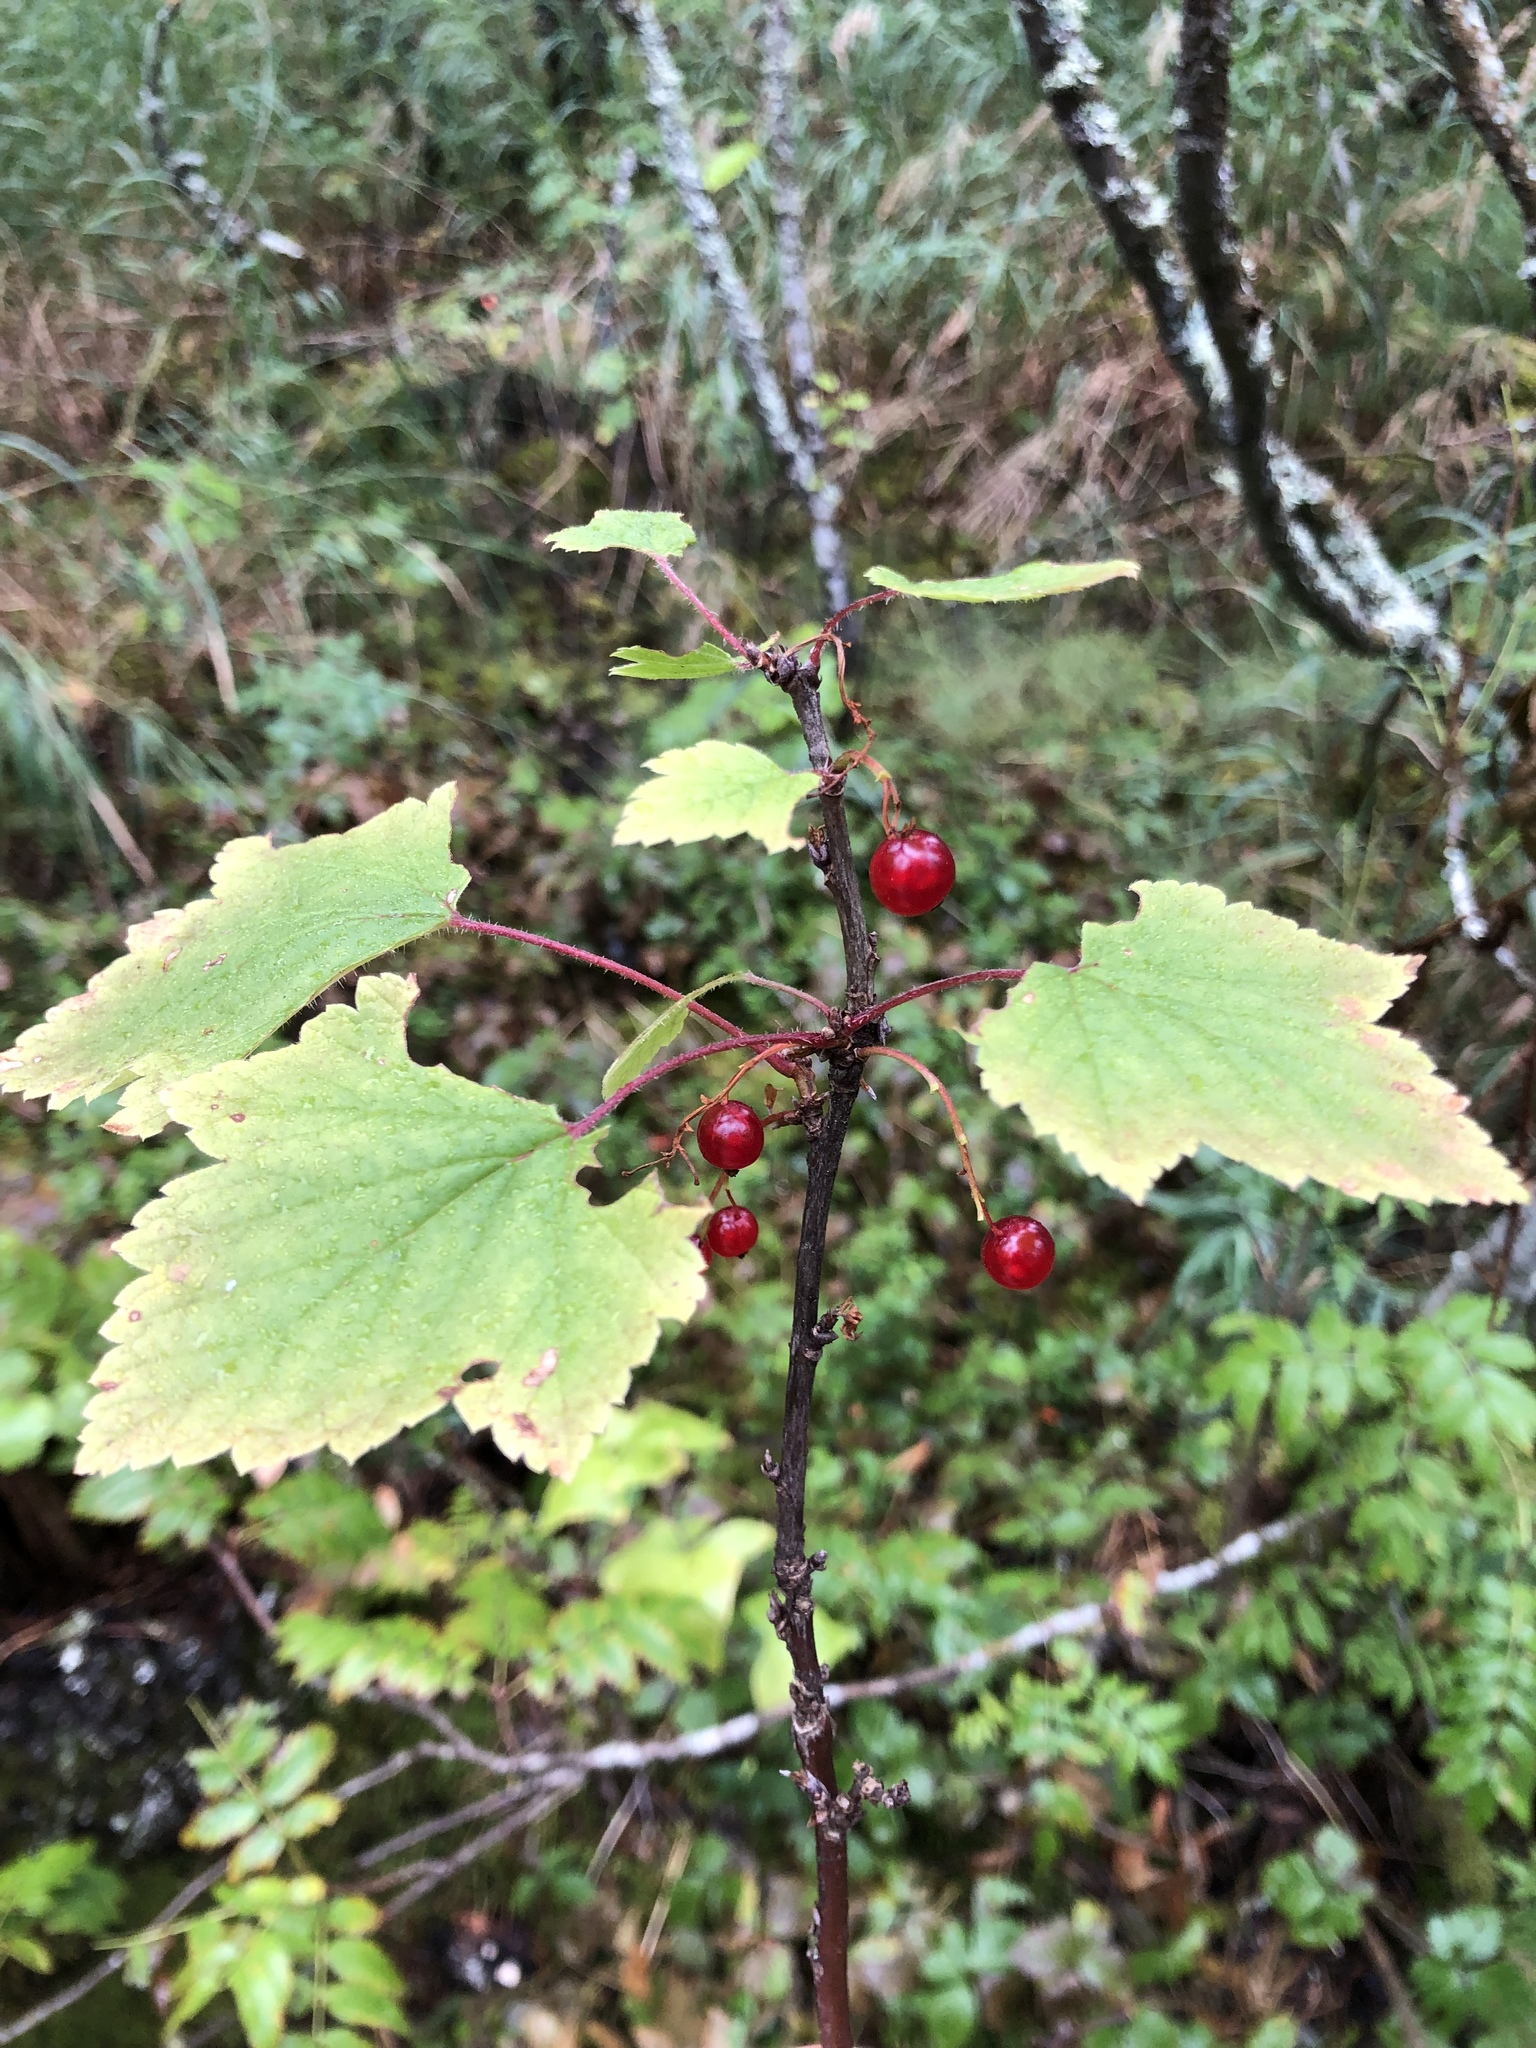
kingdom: Plantae
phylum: Tracheophyta
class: Magnoliopsida
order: Saxifragales
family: Grossulariaceae
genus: Ribes
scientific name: Ribes rubrum
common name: Red currant
